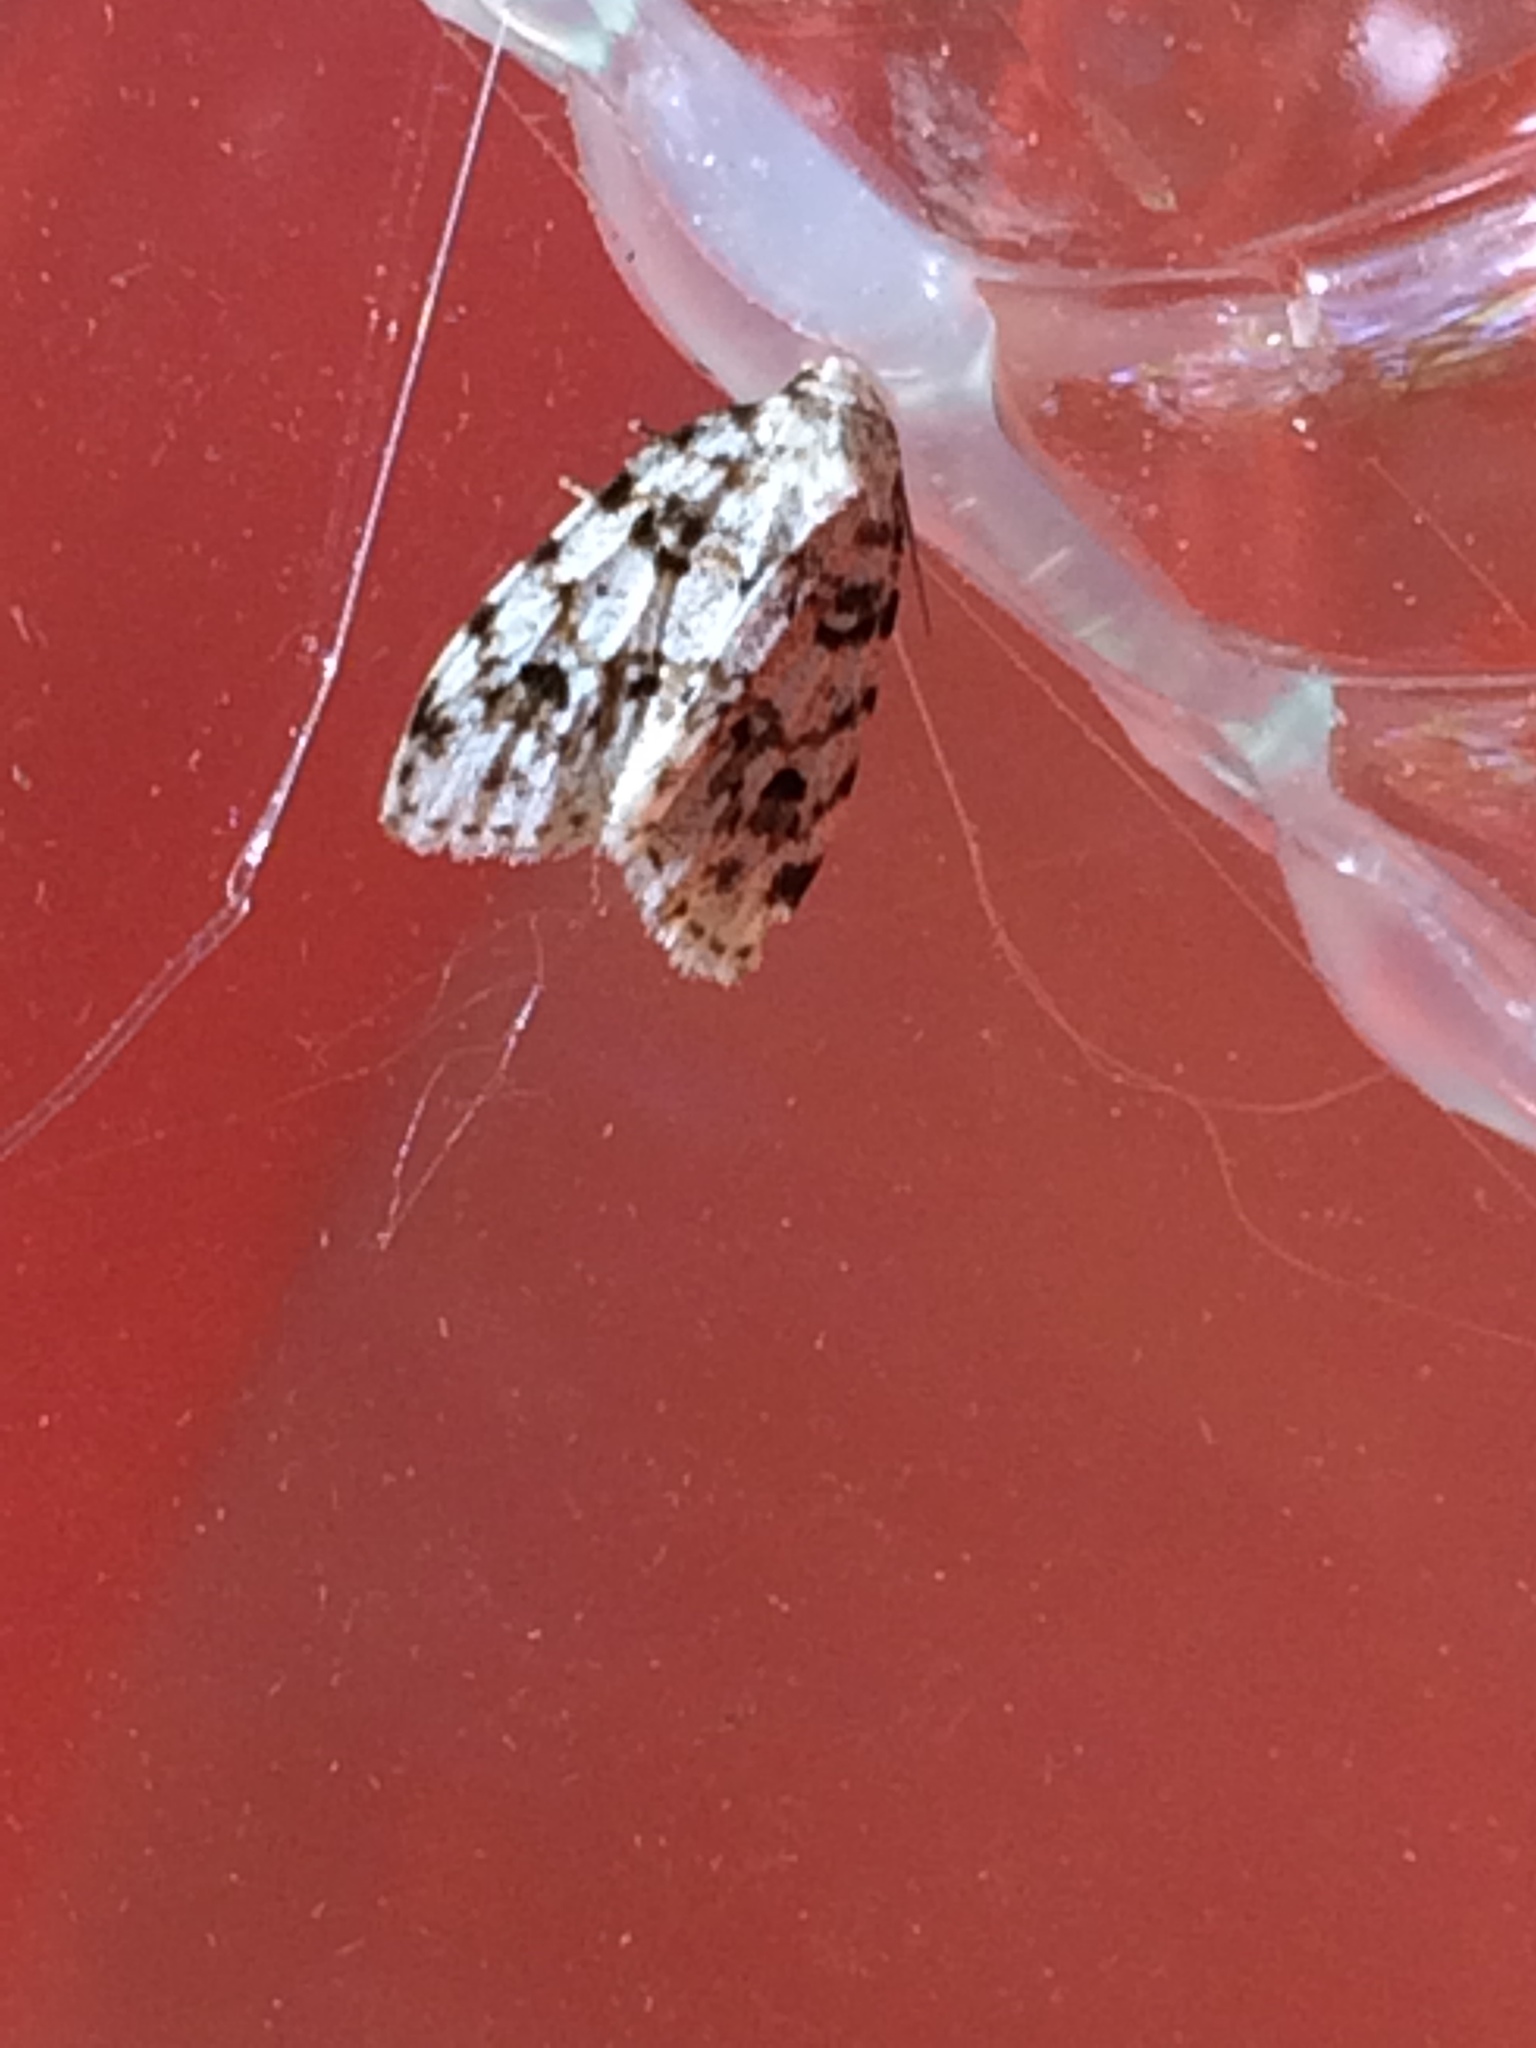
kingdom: Animalia
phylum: Arthropoda
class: Insecta
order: Lepidoptera
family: Erebidae
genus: Clemensia
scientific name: Clemensia ochreata
